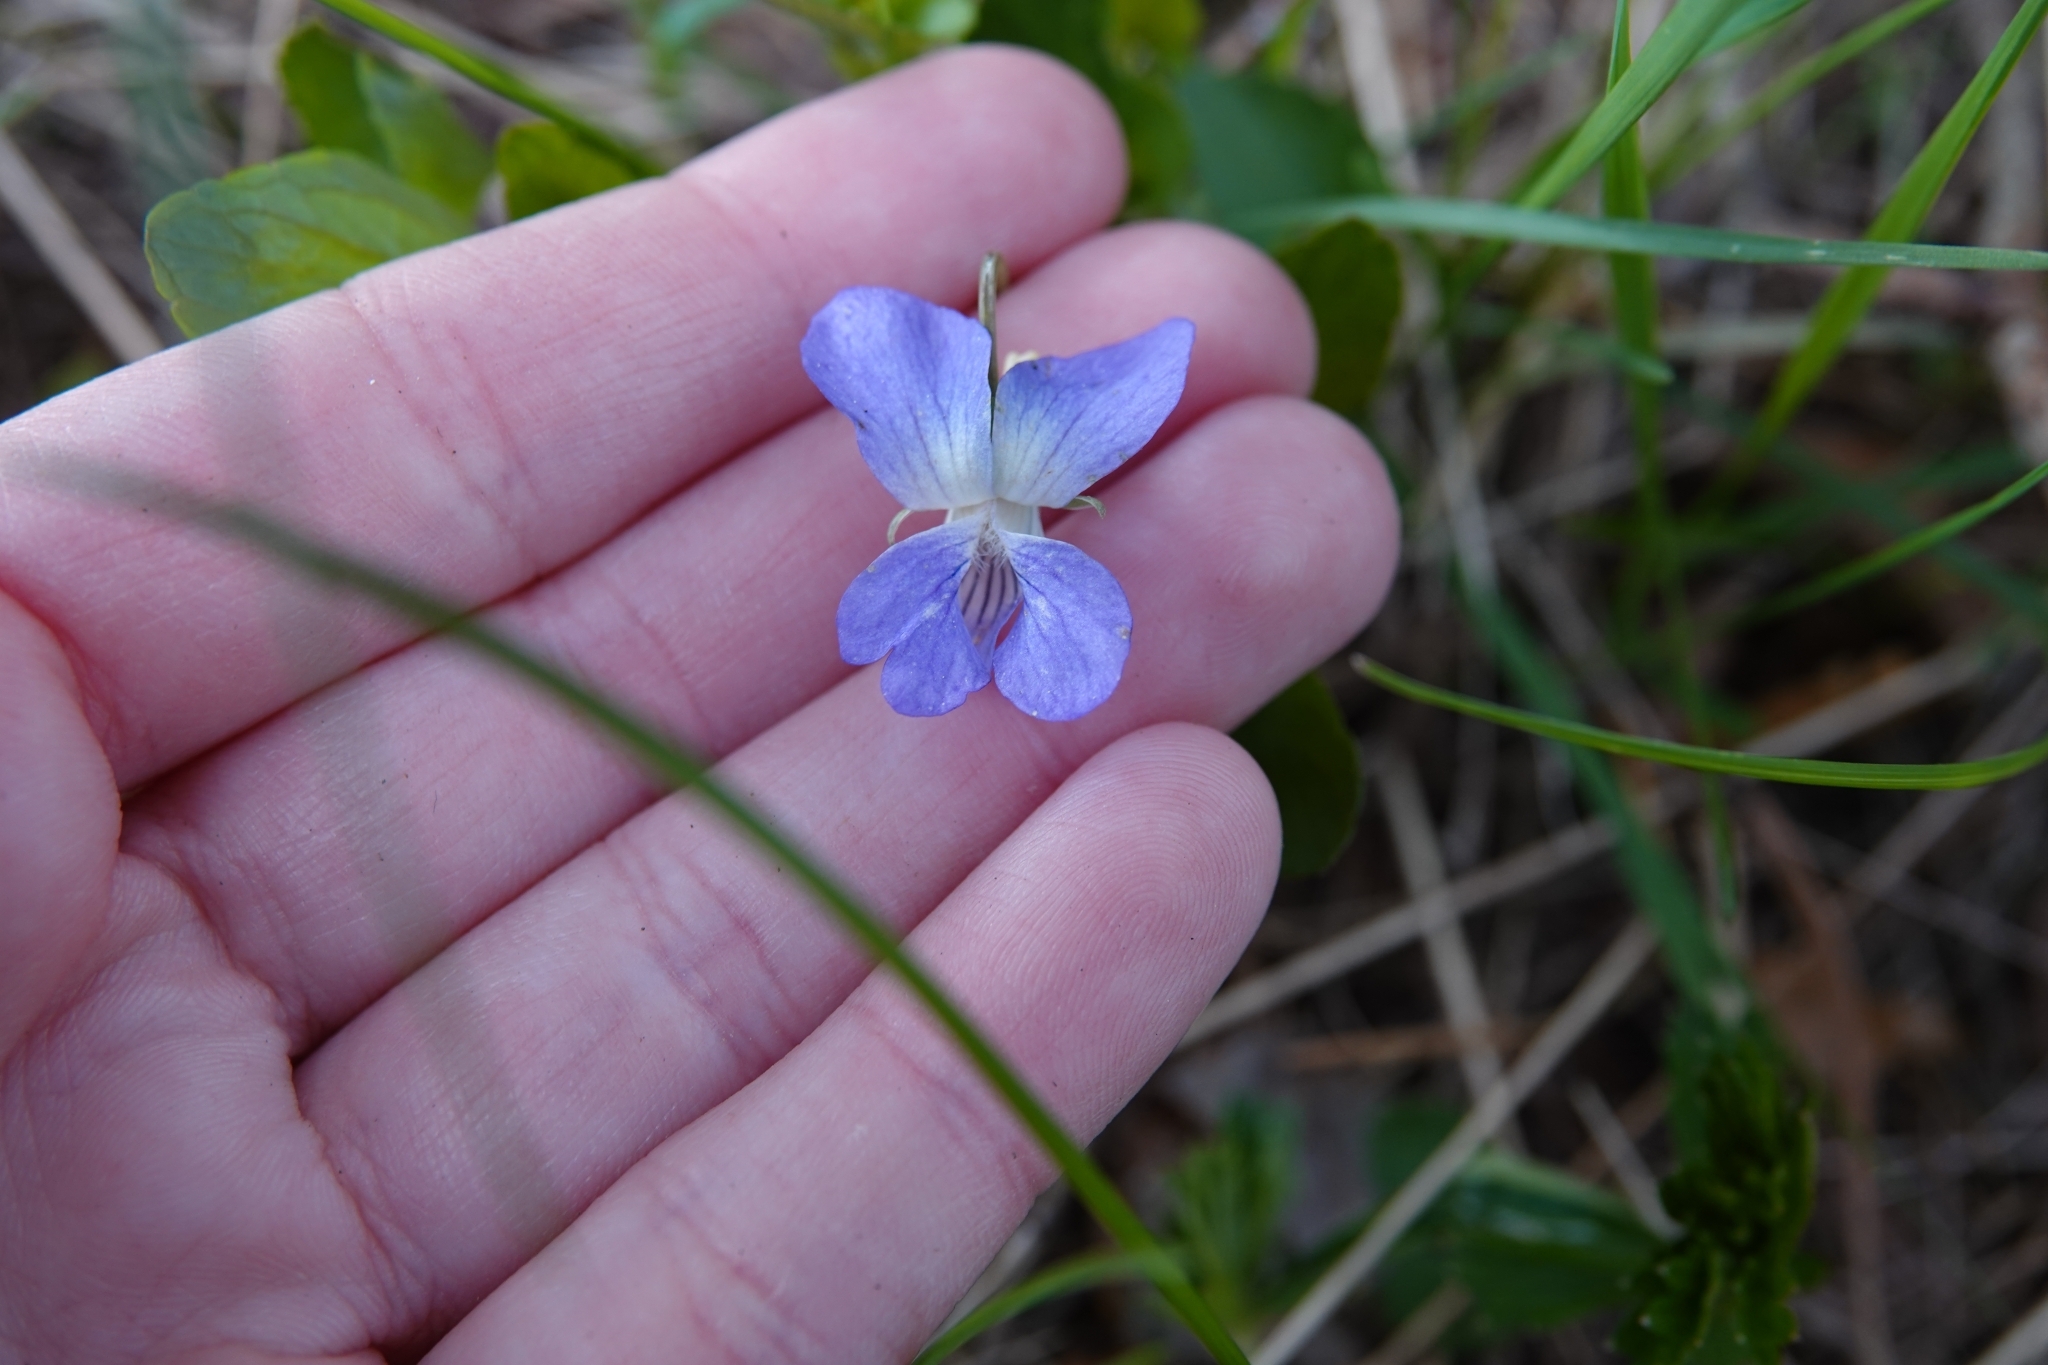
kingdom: Plantae
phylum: Tracheophyta
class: Magnoliopsida
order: Malpighiales
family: Violaceae
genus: Viola
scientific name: Viola canina
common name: Heath dog-violet
